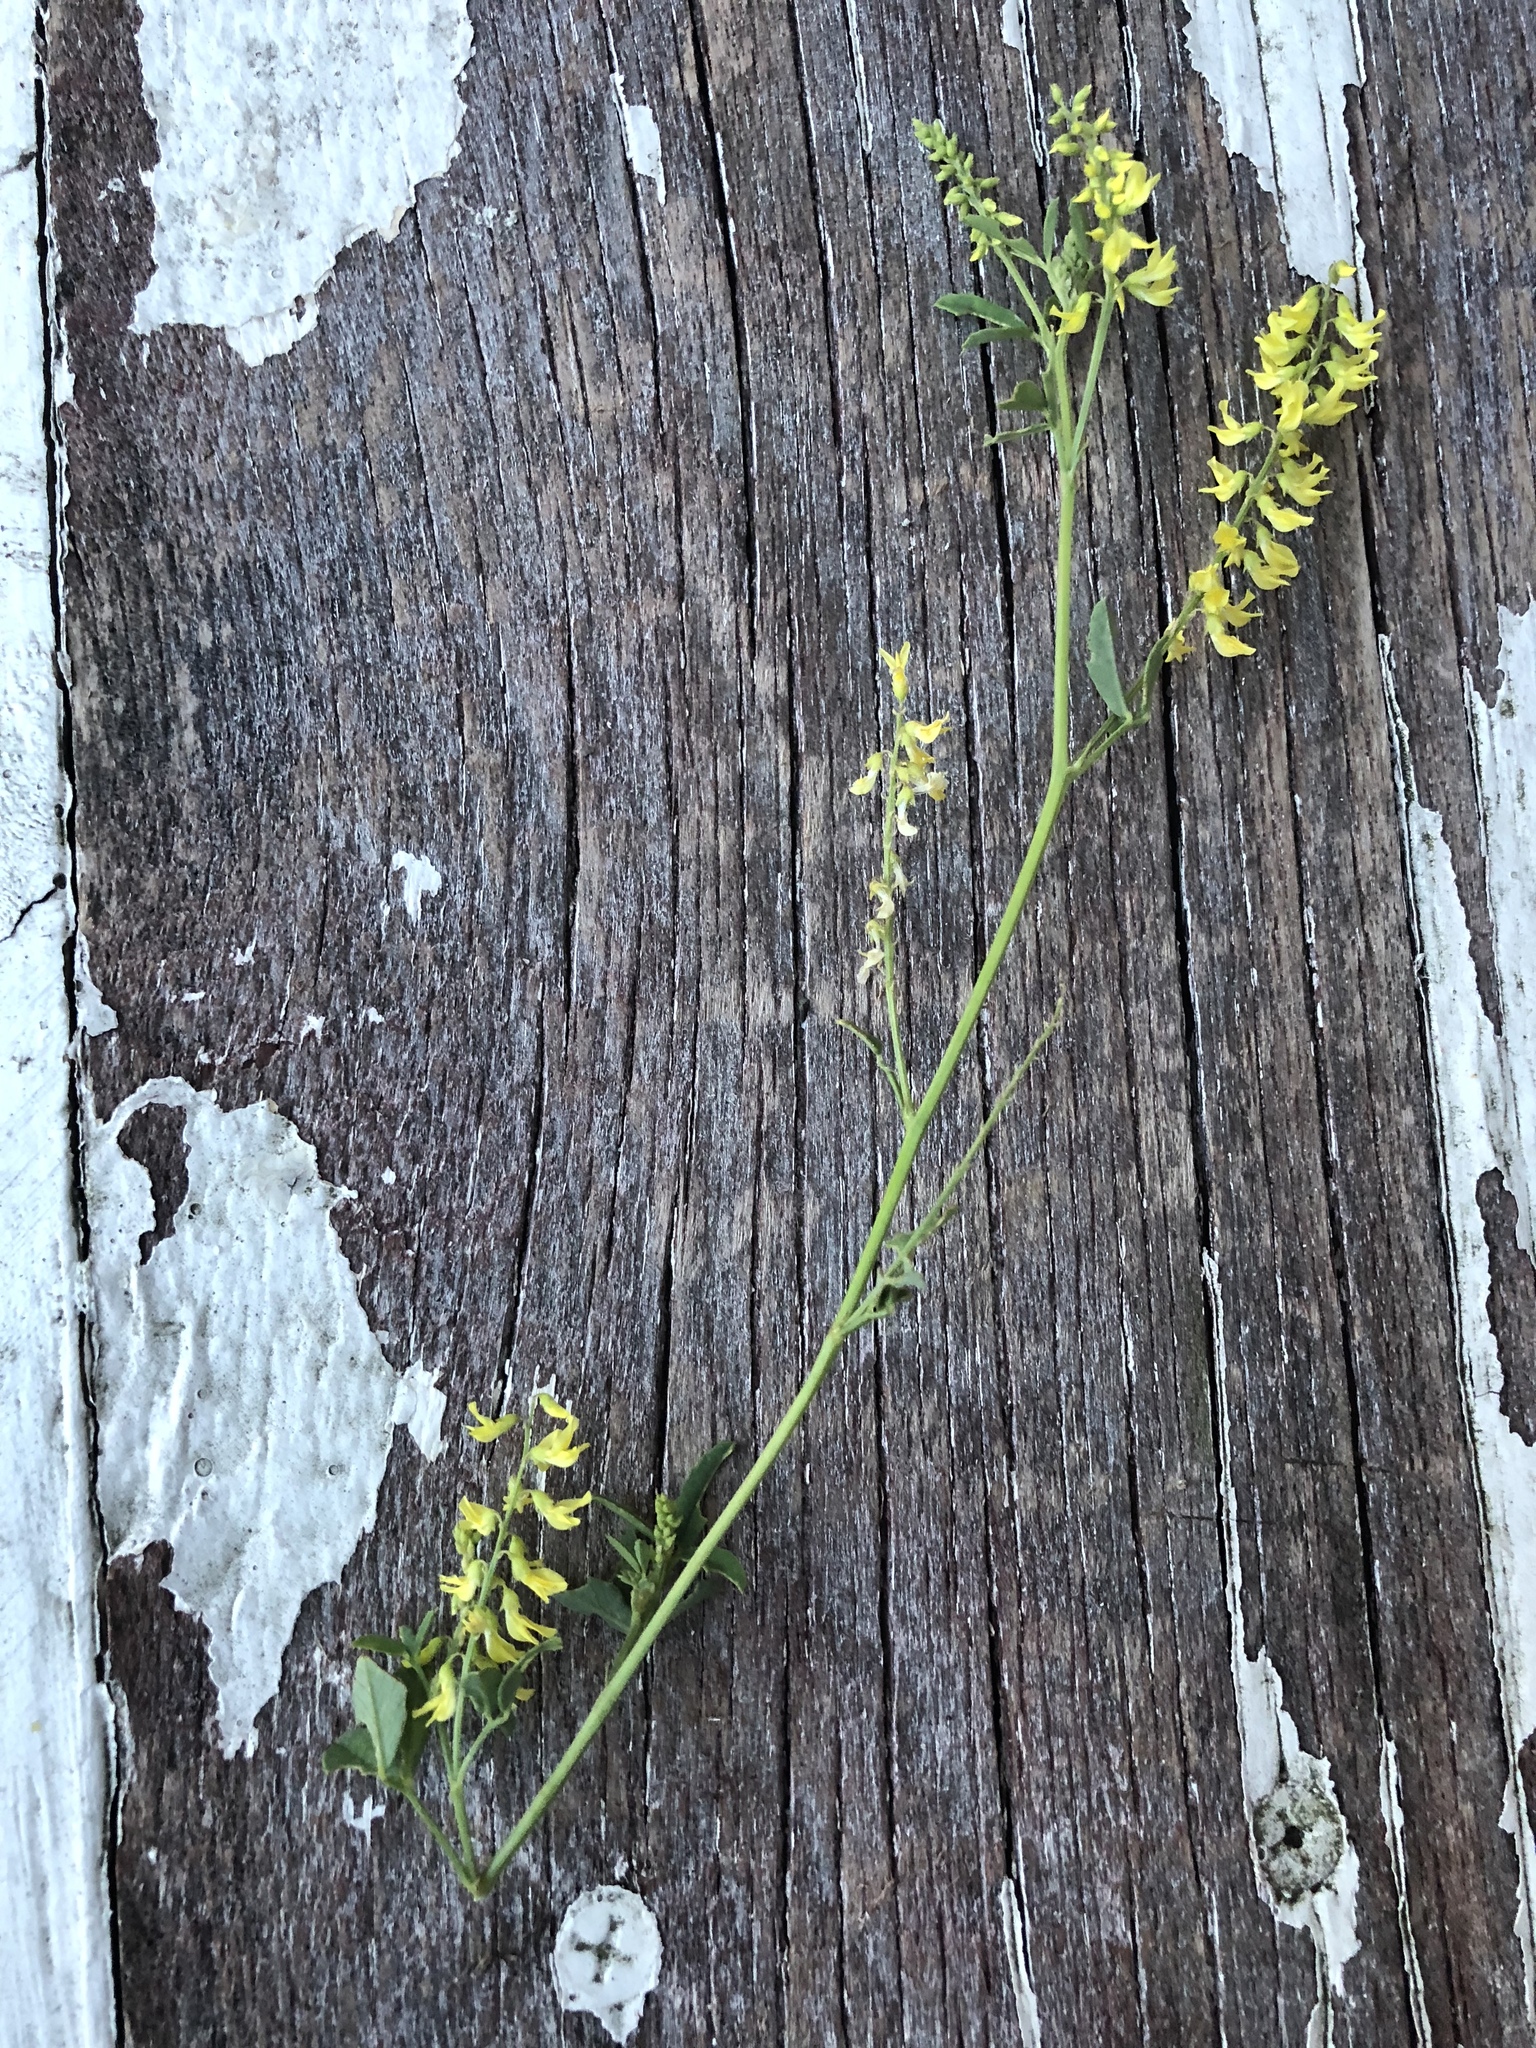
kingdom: Plantae
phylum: Tracheophyta
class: Magnoliopsida
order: Fabales
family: Fabaceae
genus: Melilotus
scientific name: Melilotus officinalis
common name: Sweetclover
